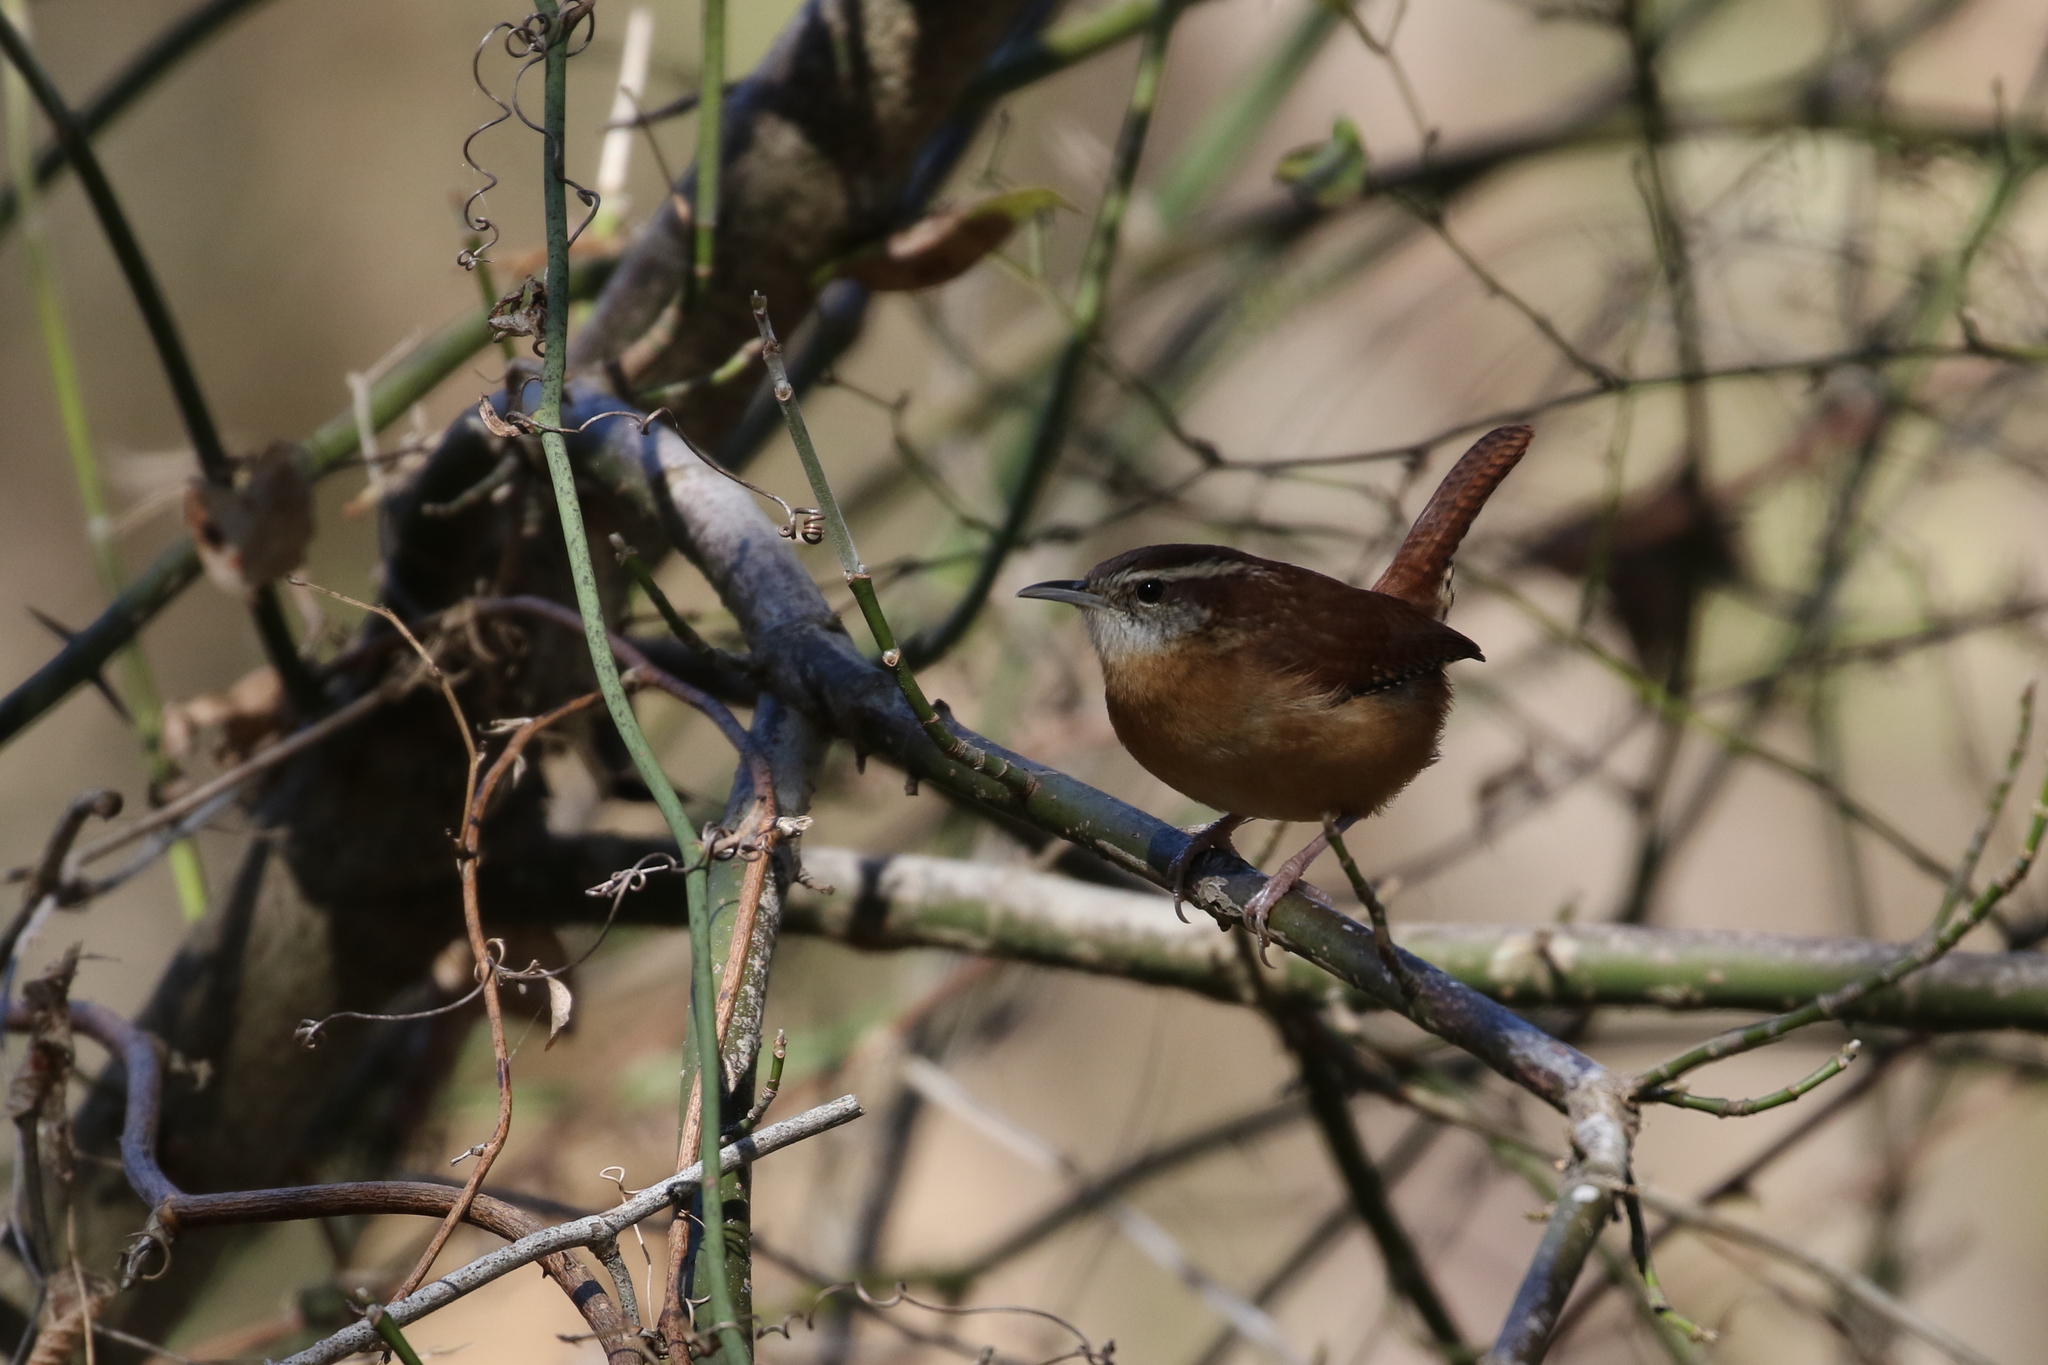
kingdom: Animalia
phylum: Chordata
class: Aves
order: Passeriformes
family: Troglodytidae
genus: Thryothorus
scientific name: Thryothorus ludovicianus
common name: Carolina wren
